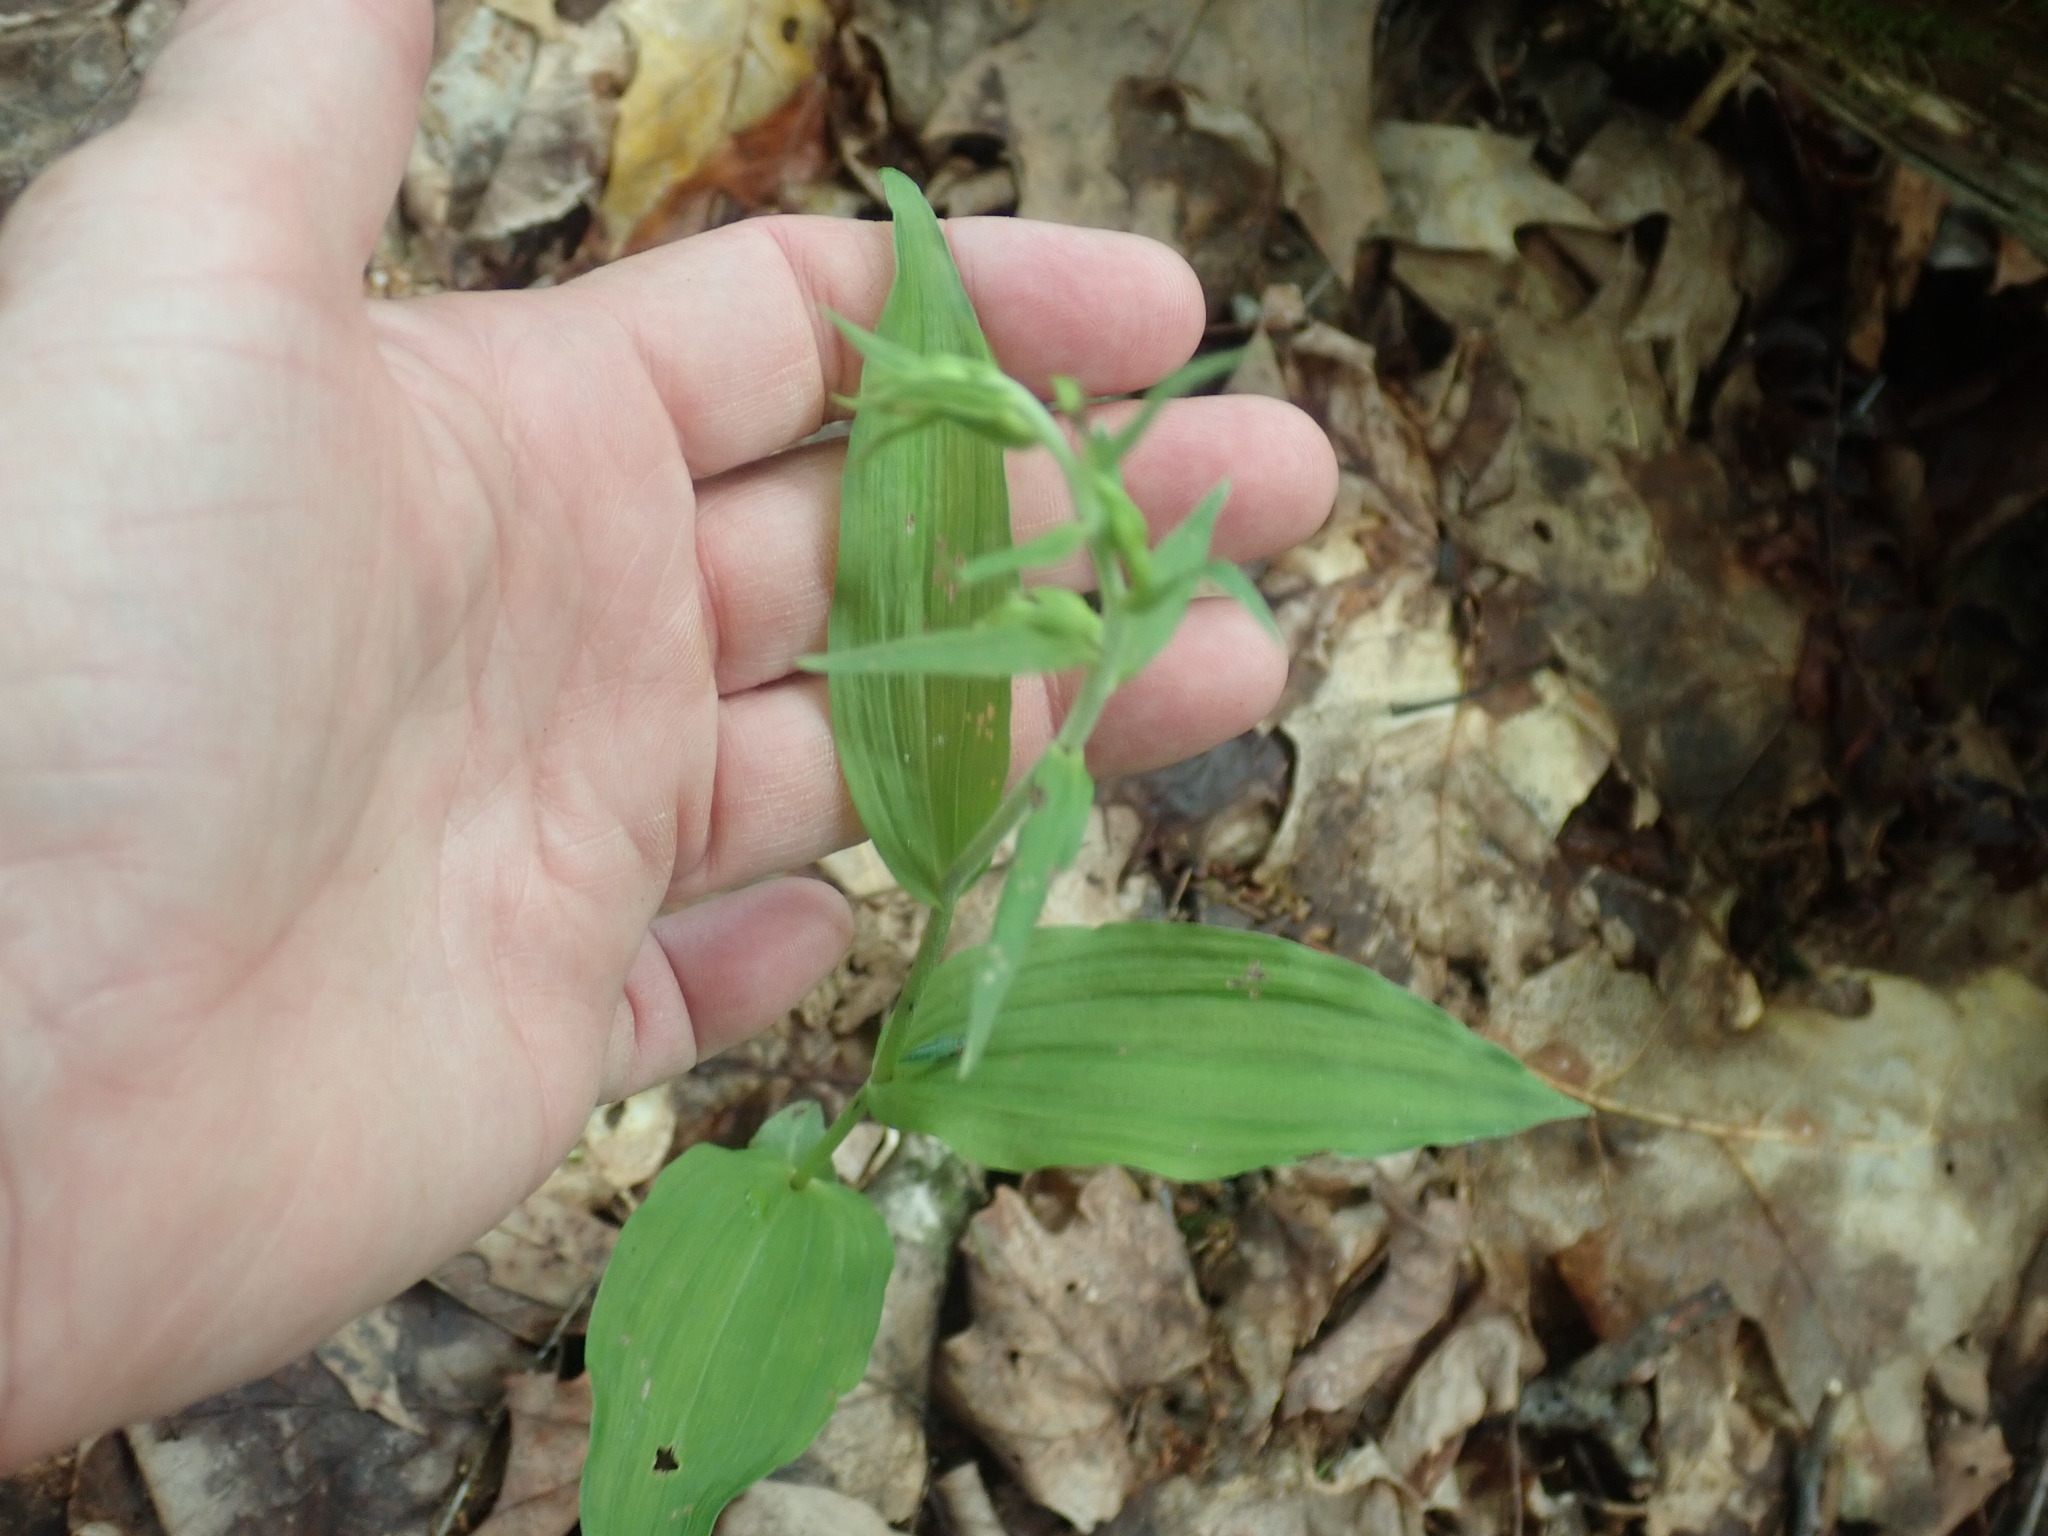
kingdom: Plantae
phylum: Tracheophyta
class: Liliopsida
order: Asparagales
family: Orchidaceae
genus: Epipactis
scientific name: Epipactis helleborine
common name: Broad-leaved helleborine
